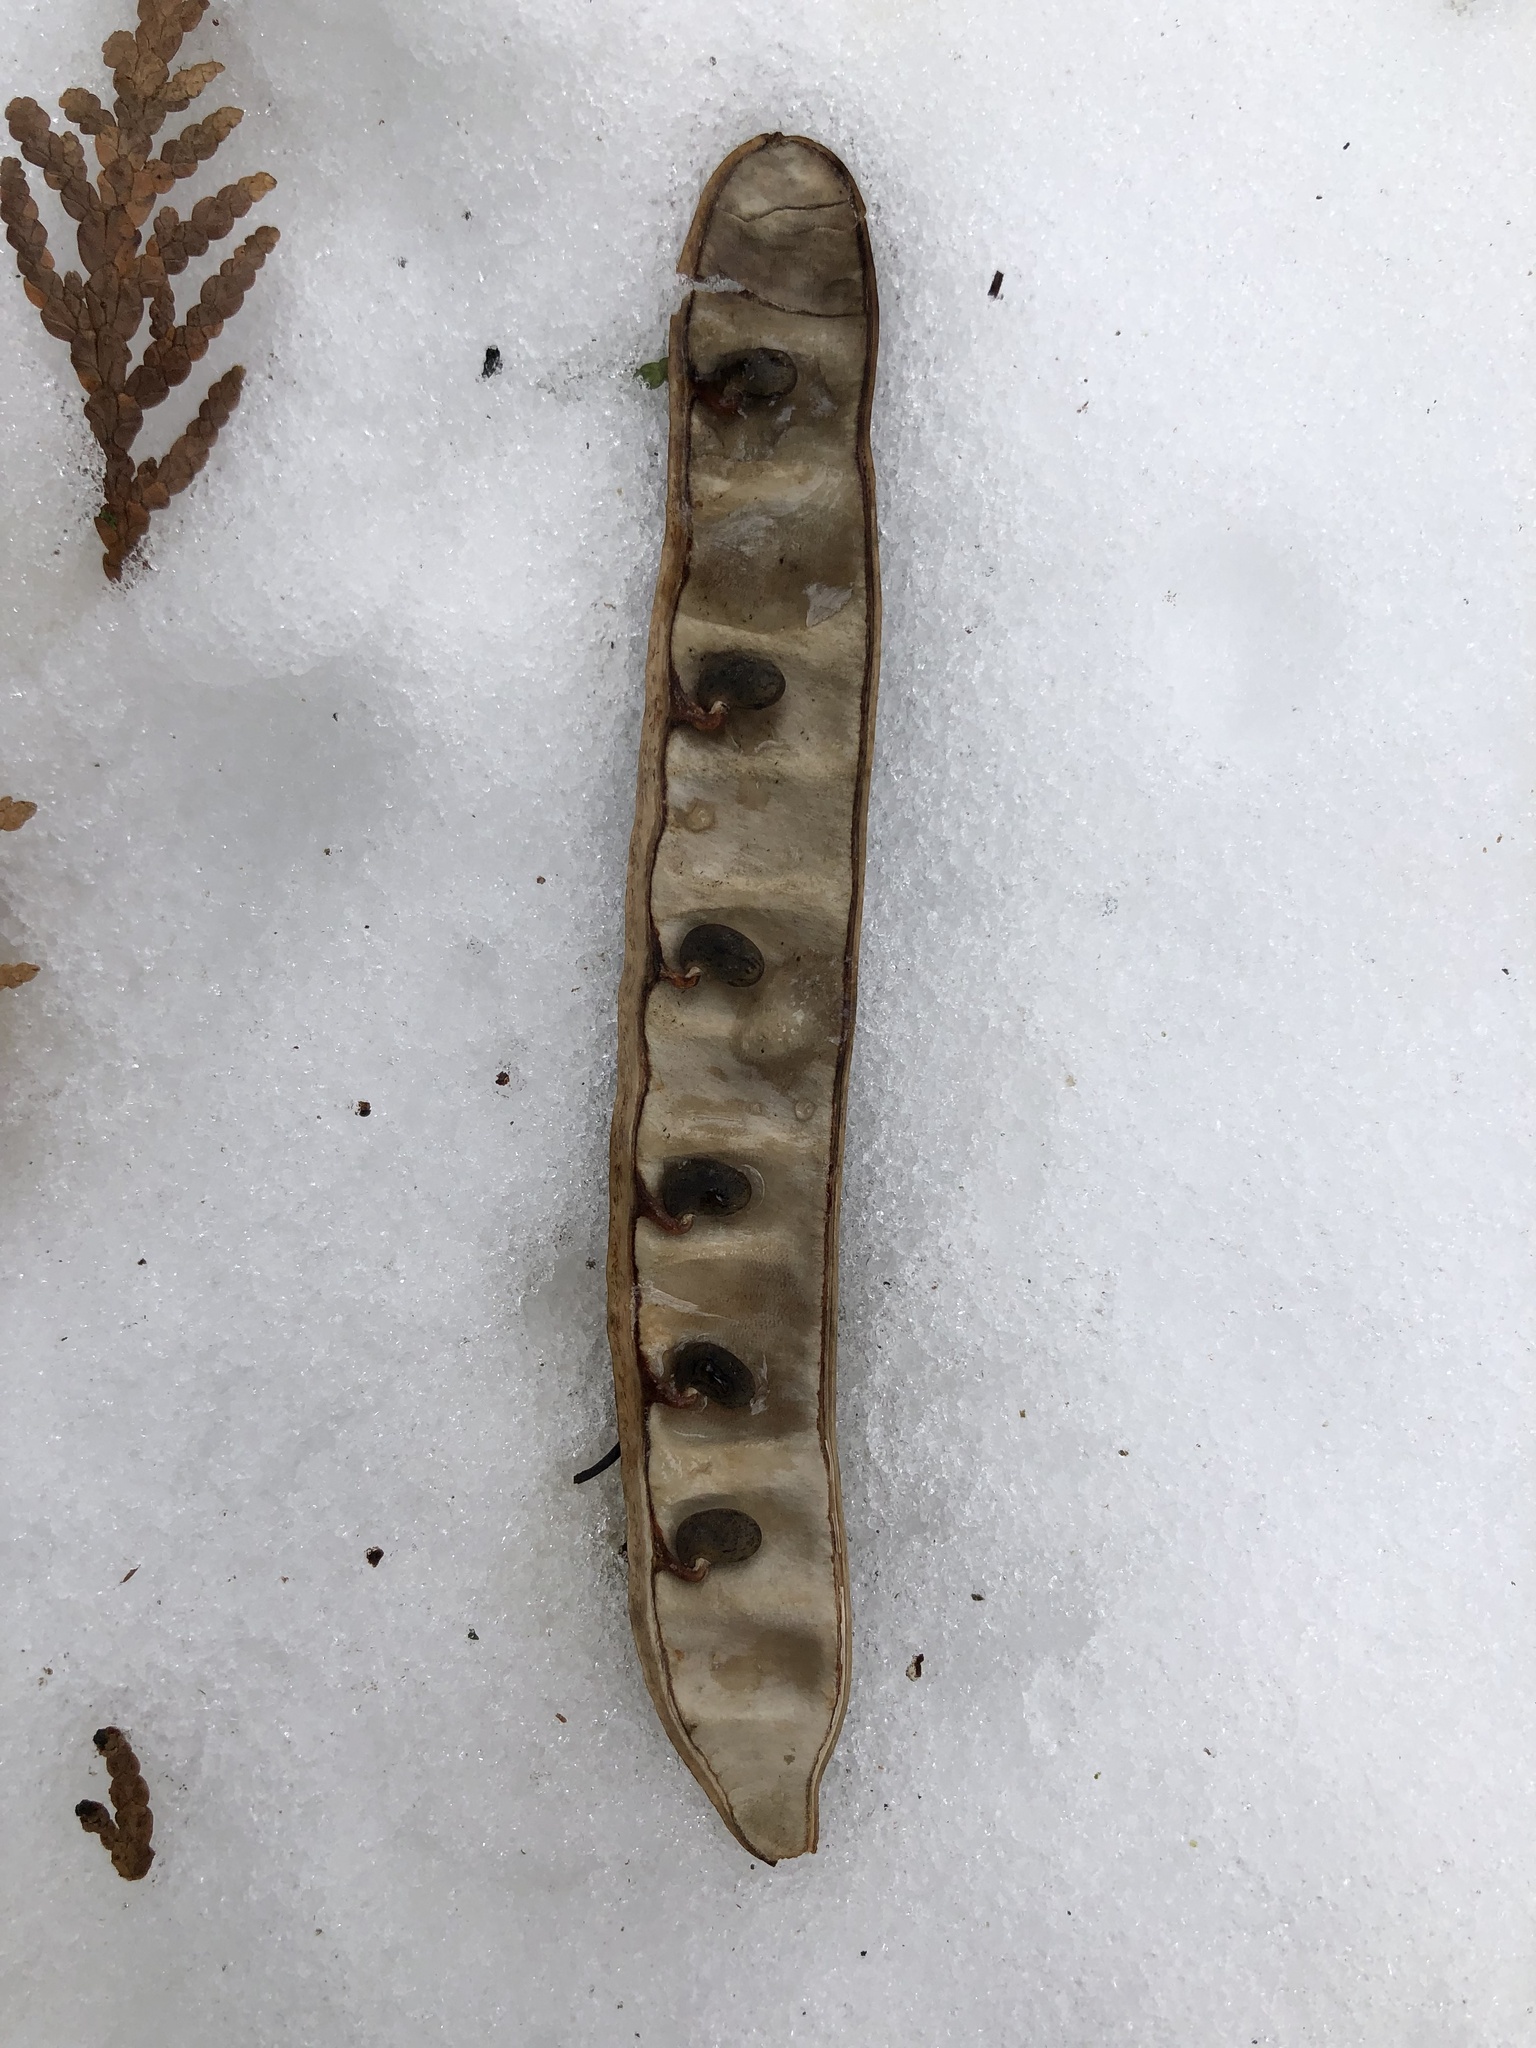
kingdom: Plantae
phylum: Tracheophyta
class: Magnoliopsida
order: Fabales
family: Fabaceae
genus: Robinia
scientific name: Robinia pseudoacacia
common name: Black locust
